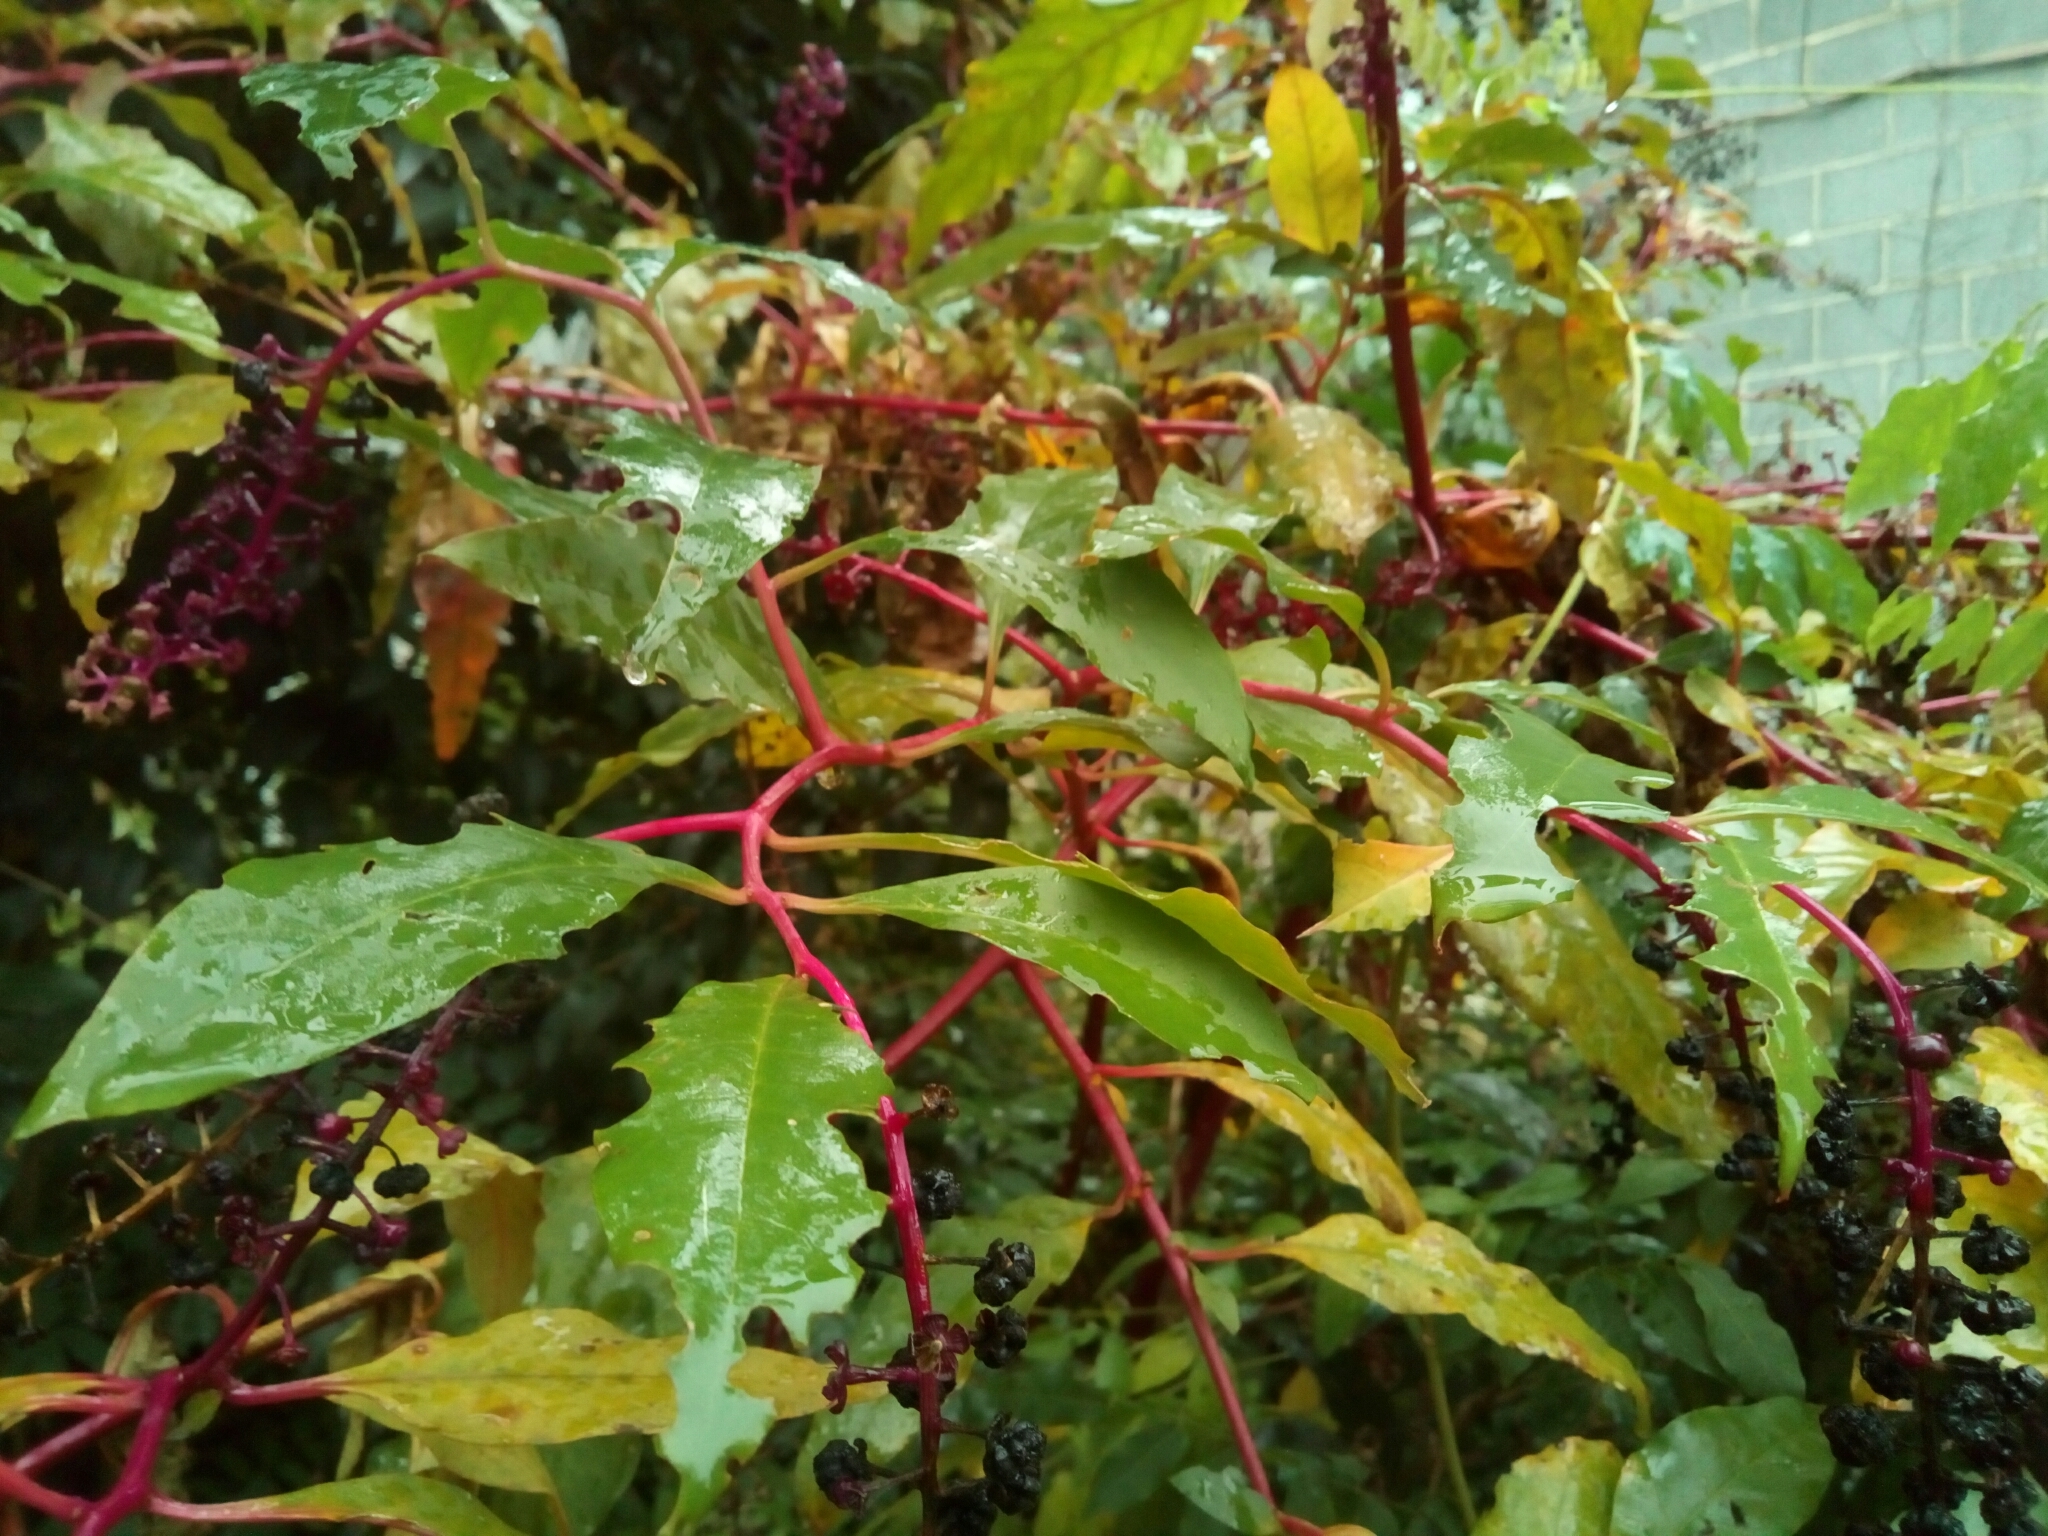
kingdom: Plantae
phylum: Tracheophyta
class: Magnoliopsida
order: Caryophyllales
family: Phytolaccaceae
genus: Phytolacca
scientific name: Phytolacca americana
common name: American pokeweed
